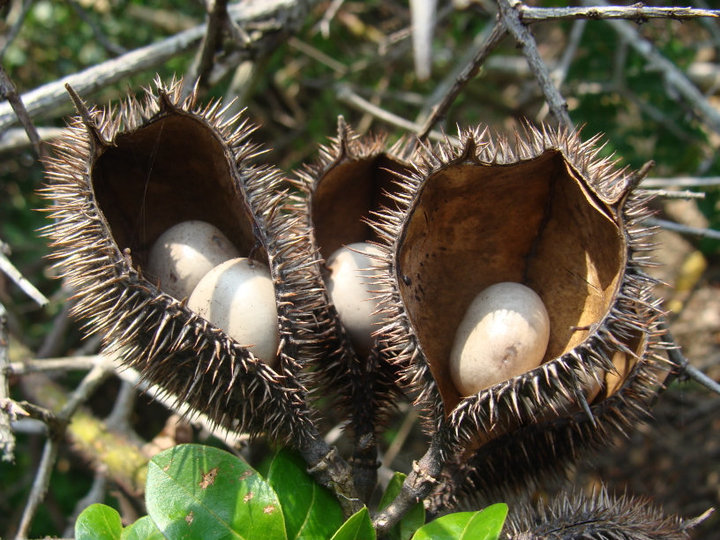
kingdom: Plantae
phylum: Tracheophyta
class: Magnoliopsida
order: Fabales
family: Fabaceae
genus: Guilandina
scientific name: Guilandina bonduc
